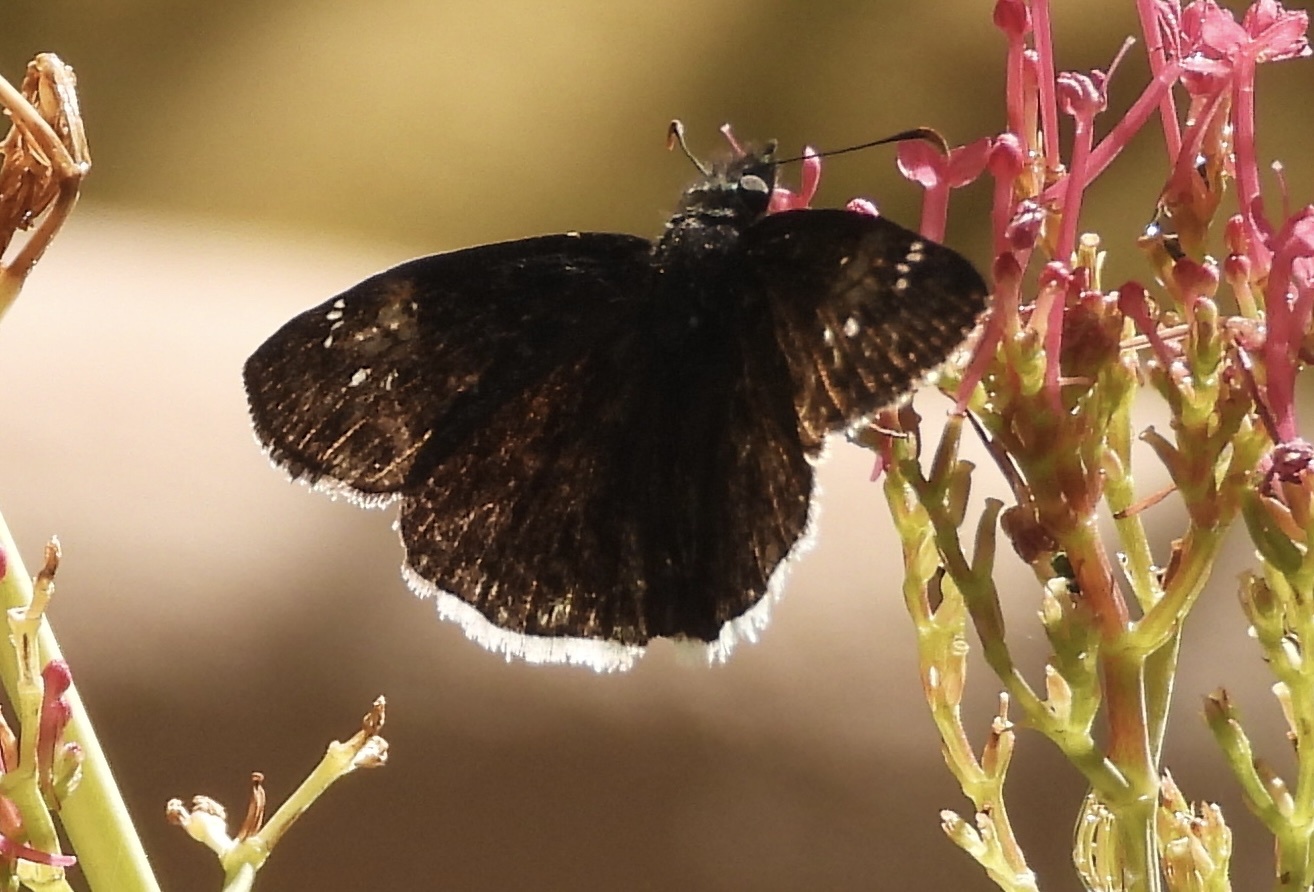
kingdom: Animalia
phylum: Arthropoda
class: Insecta
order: Lepidoptera
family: Hesperiidae
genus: Erynnis
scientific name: Erynnis funeralis
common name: Funereal duskywing
